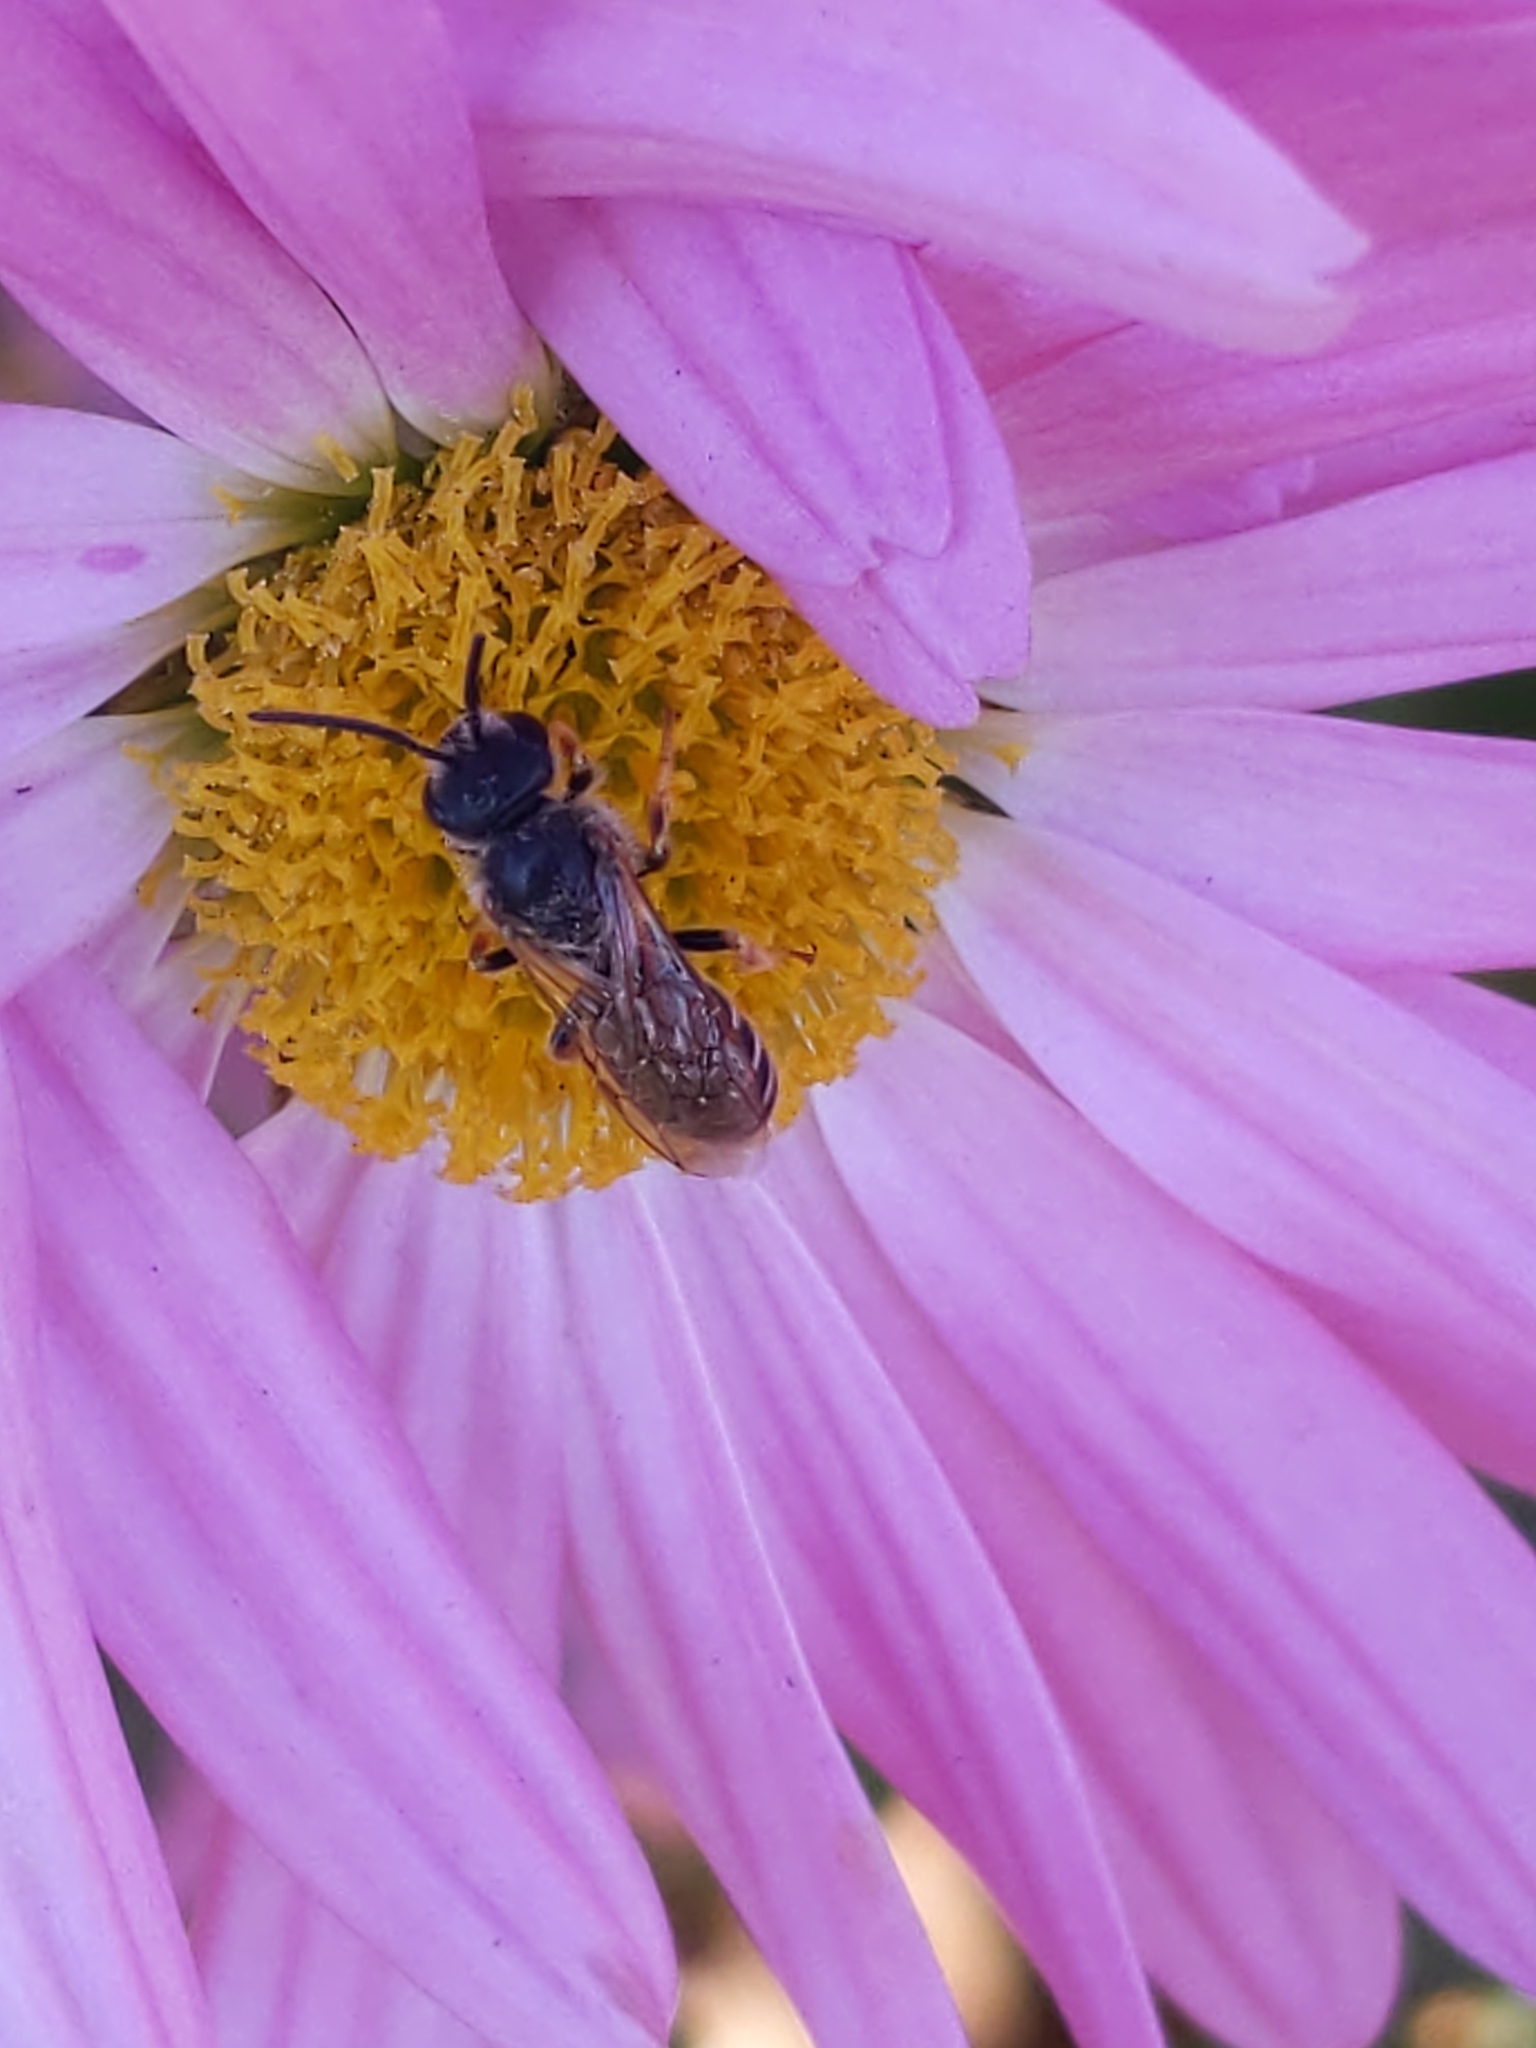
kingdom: Animalia
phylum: Arthropoda
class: Insecta
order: Hymenoptera
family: Halictidae
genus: Halictus
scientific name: Halictus ligatus
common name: Ligated furrow bee
